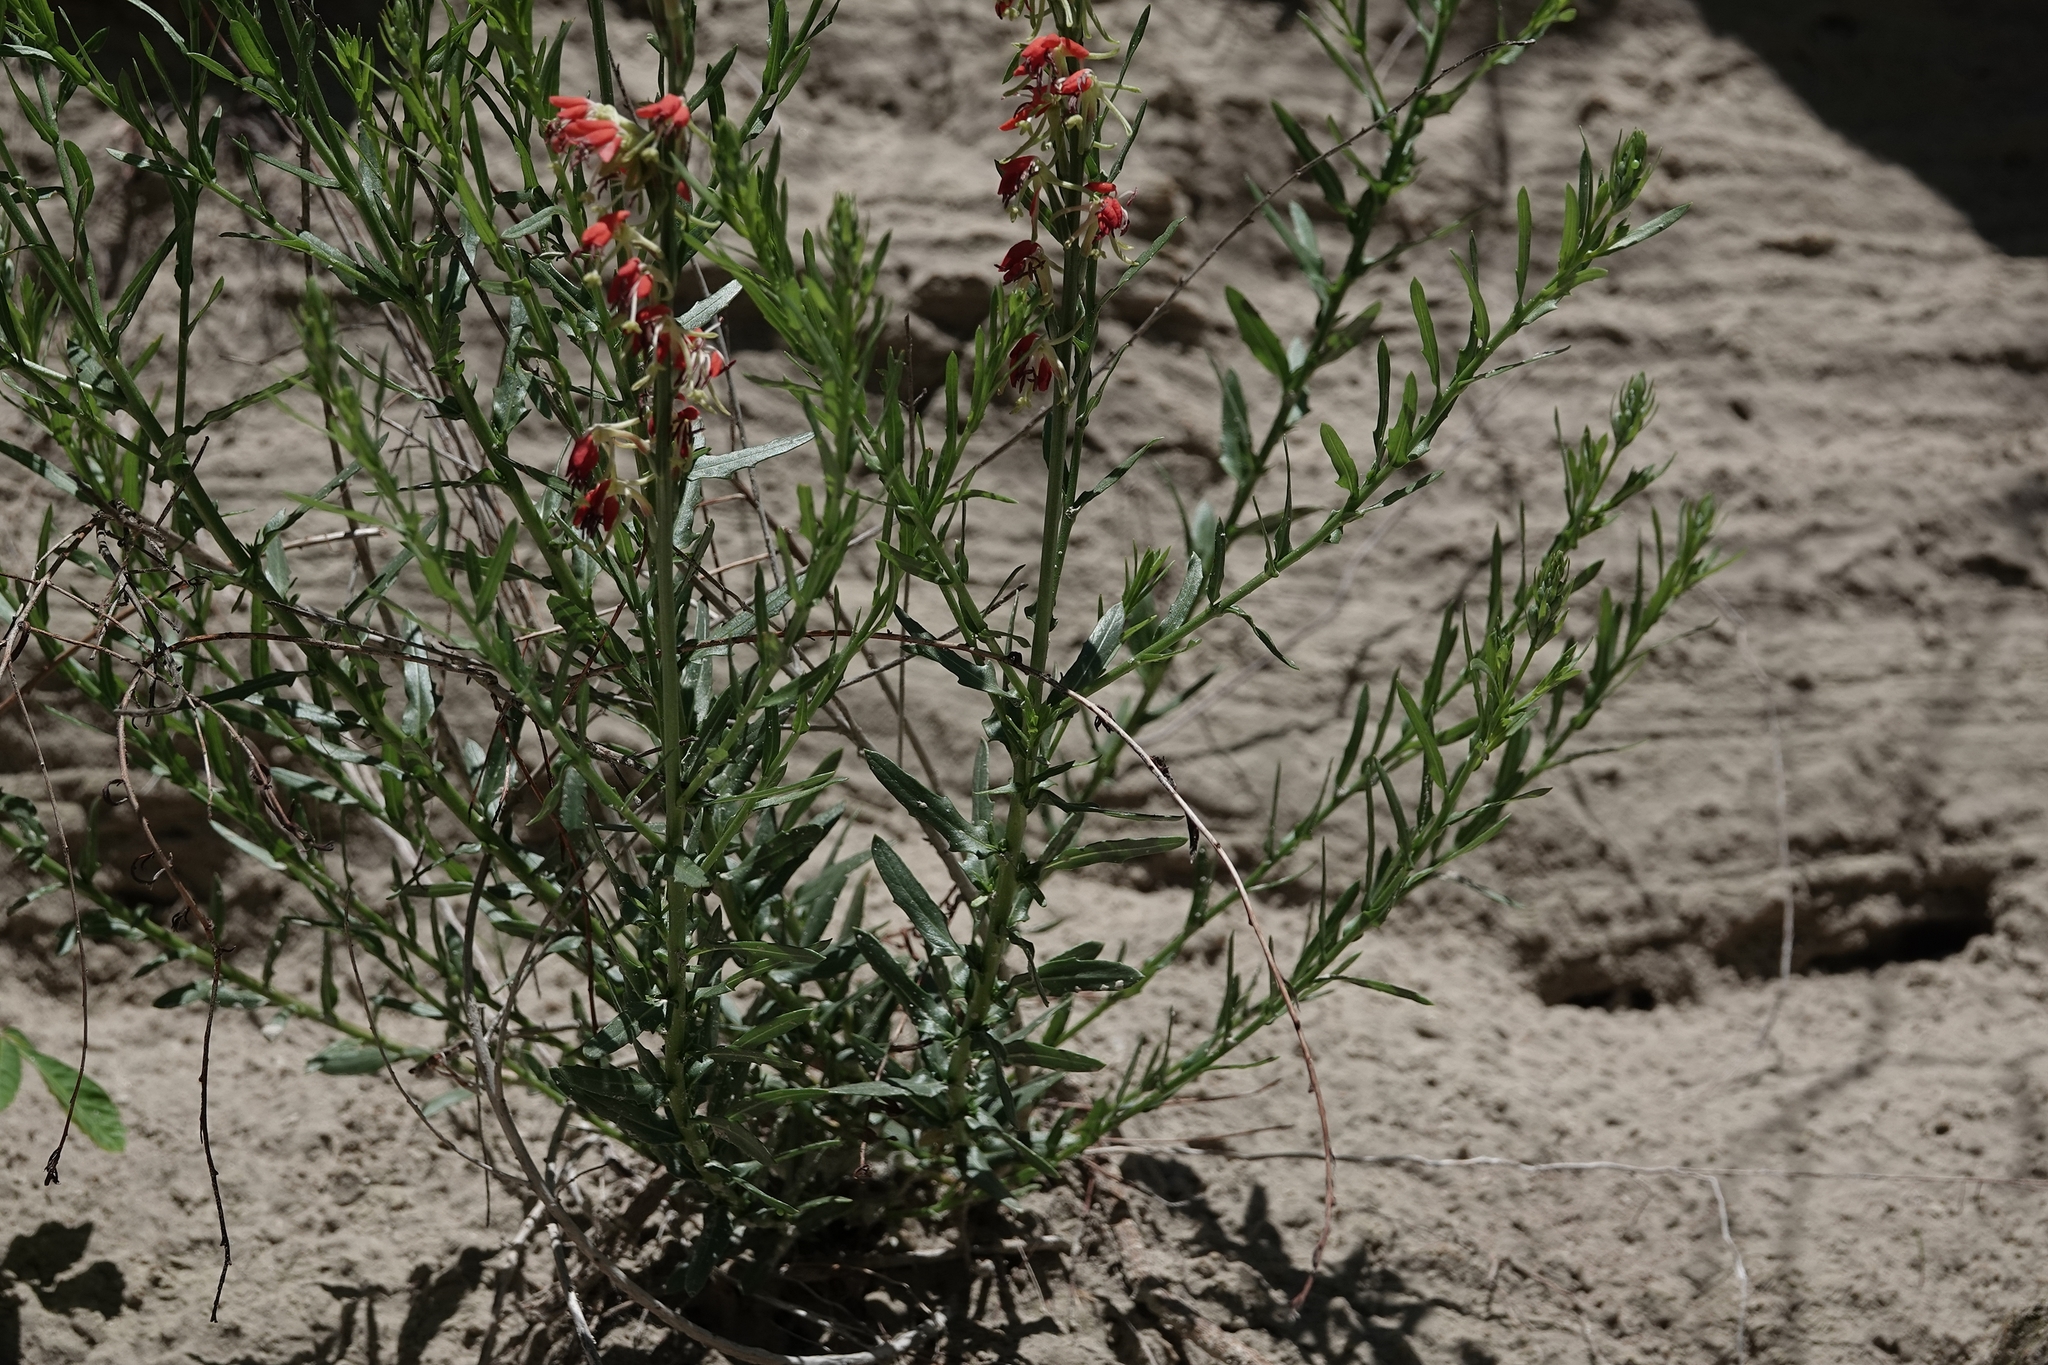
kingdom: Plantae
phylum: Tracheophyta
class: Magnoliopsida
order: Myrtales
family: Onagraceae
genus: Oenothera
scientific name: Oenothera suffrutescens
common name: Scarlet beeblossom
